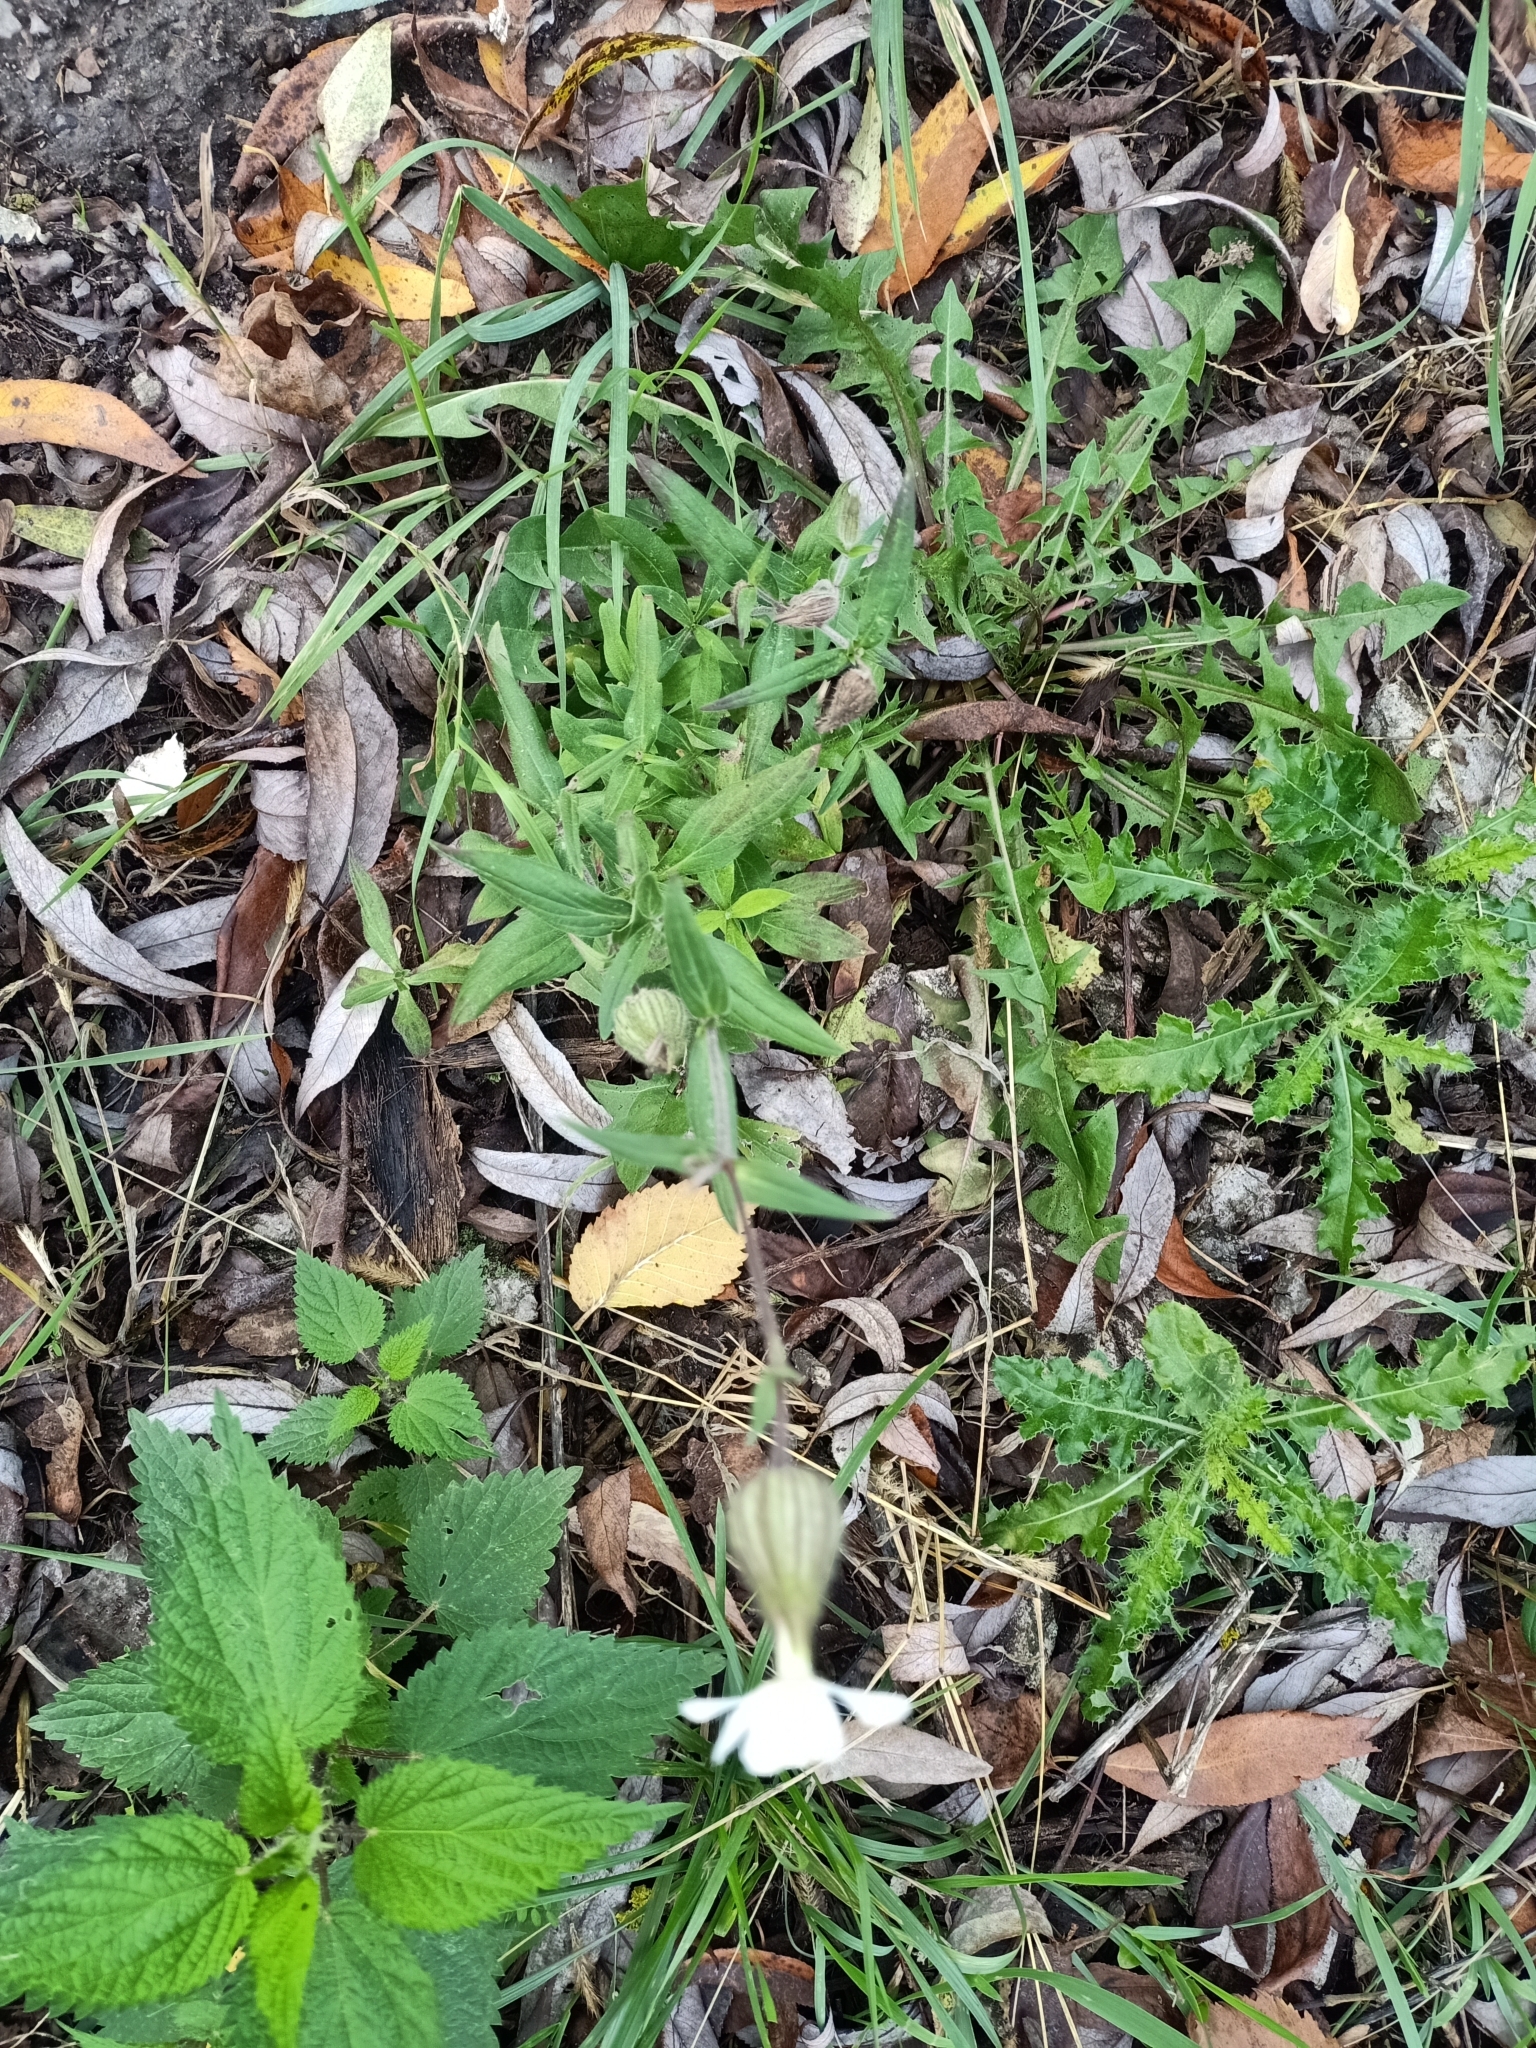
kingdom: Plantae
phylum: Tracheophyta
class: Magnoliopsida
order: Caryophyllales
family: Caryophyllaceae
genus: Silene
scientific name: Silene latifolia
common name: White campion
